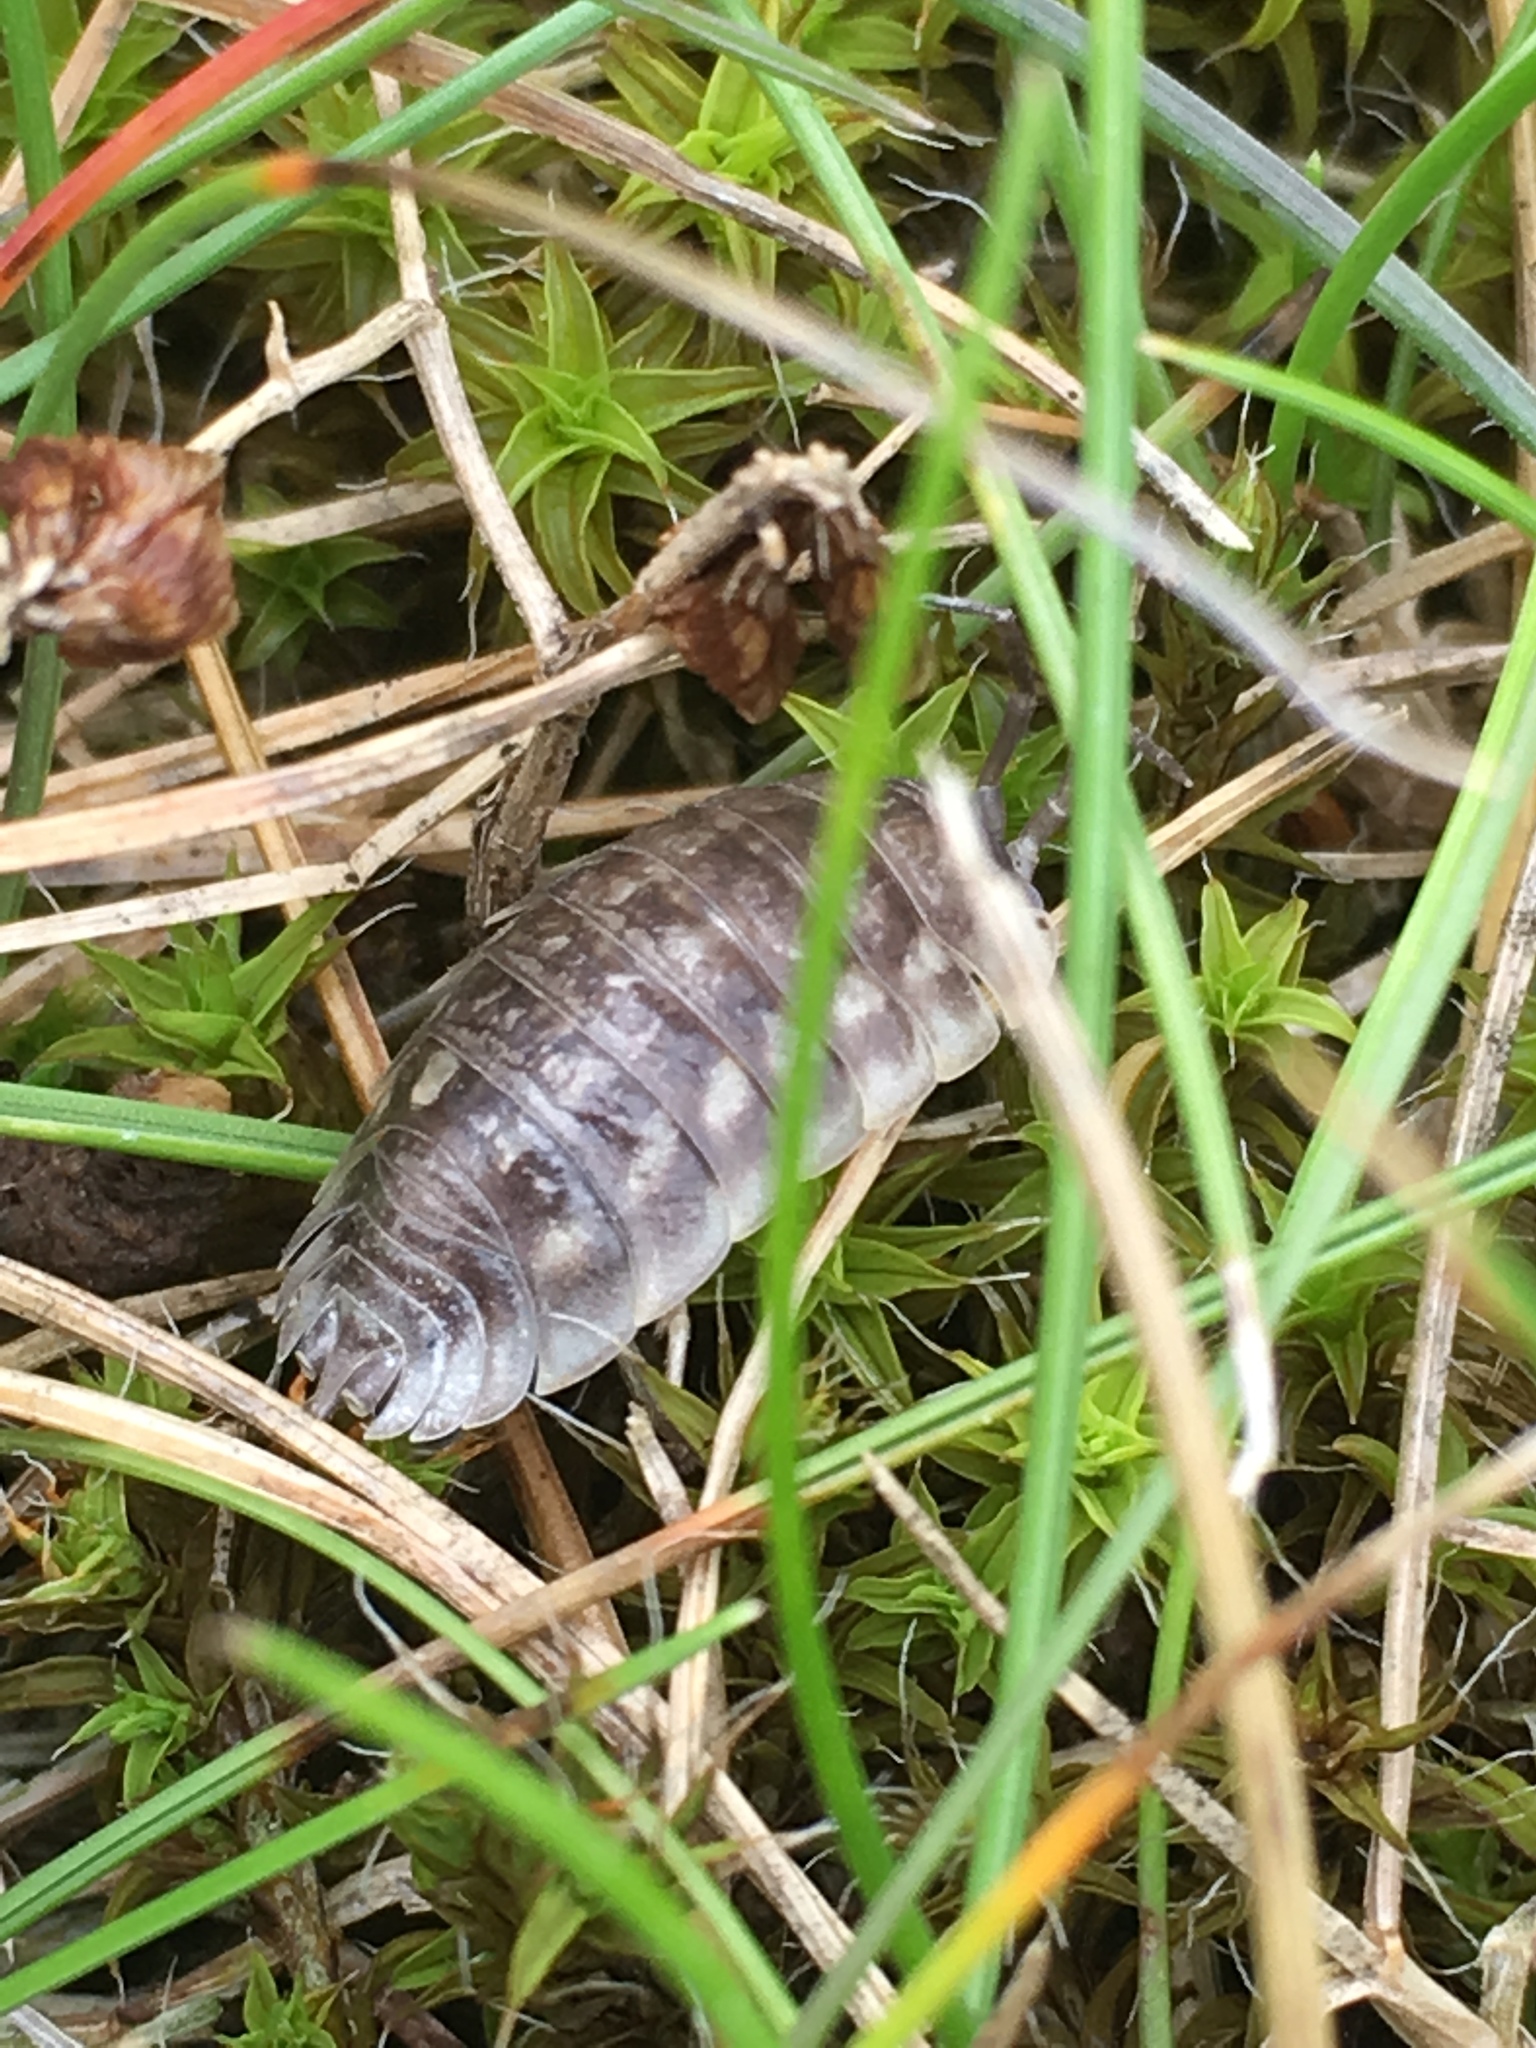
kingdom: Animalia
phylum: Arthropoda
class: Malacostraca
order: Isopoda
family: Oniscidae
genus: Oniscus
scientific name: Oniscus asellus
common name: Common shiny woodlouse
